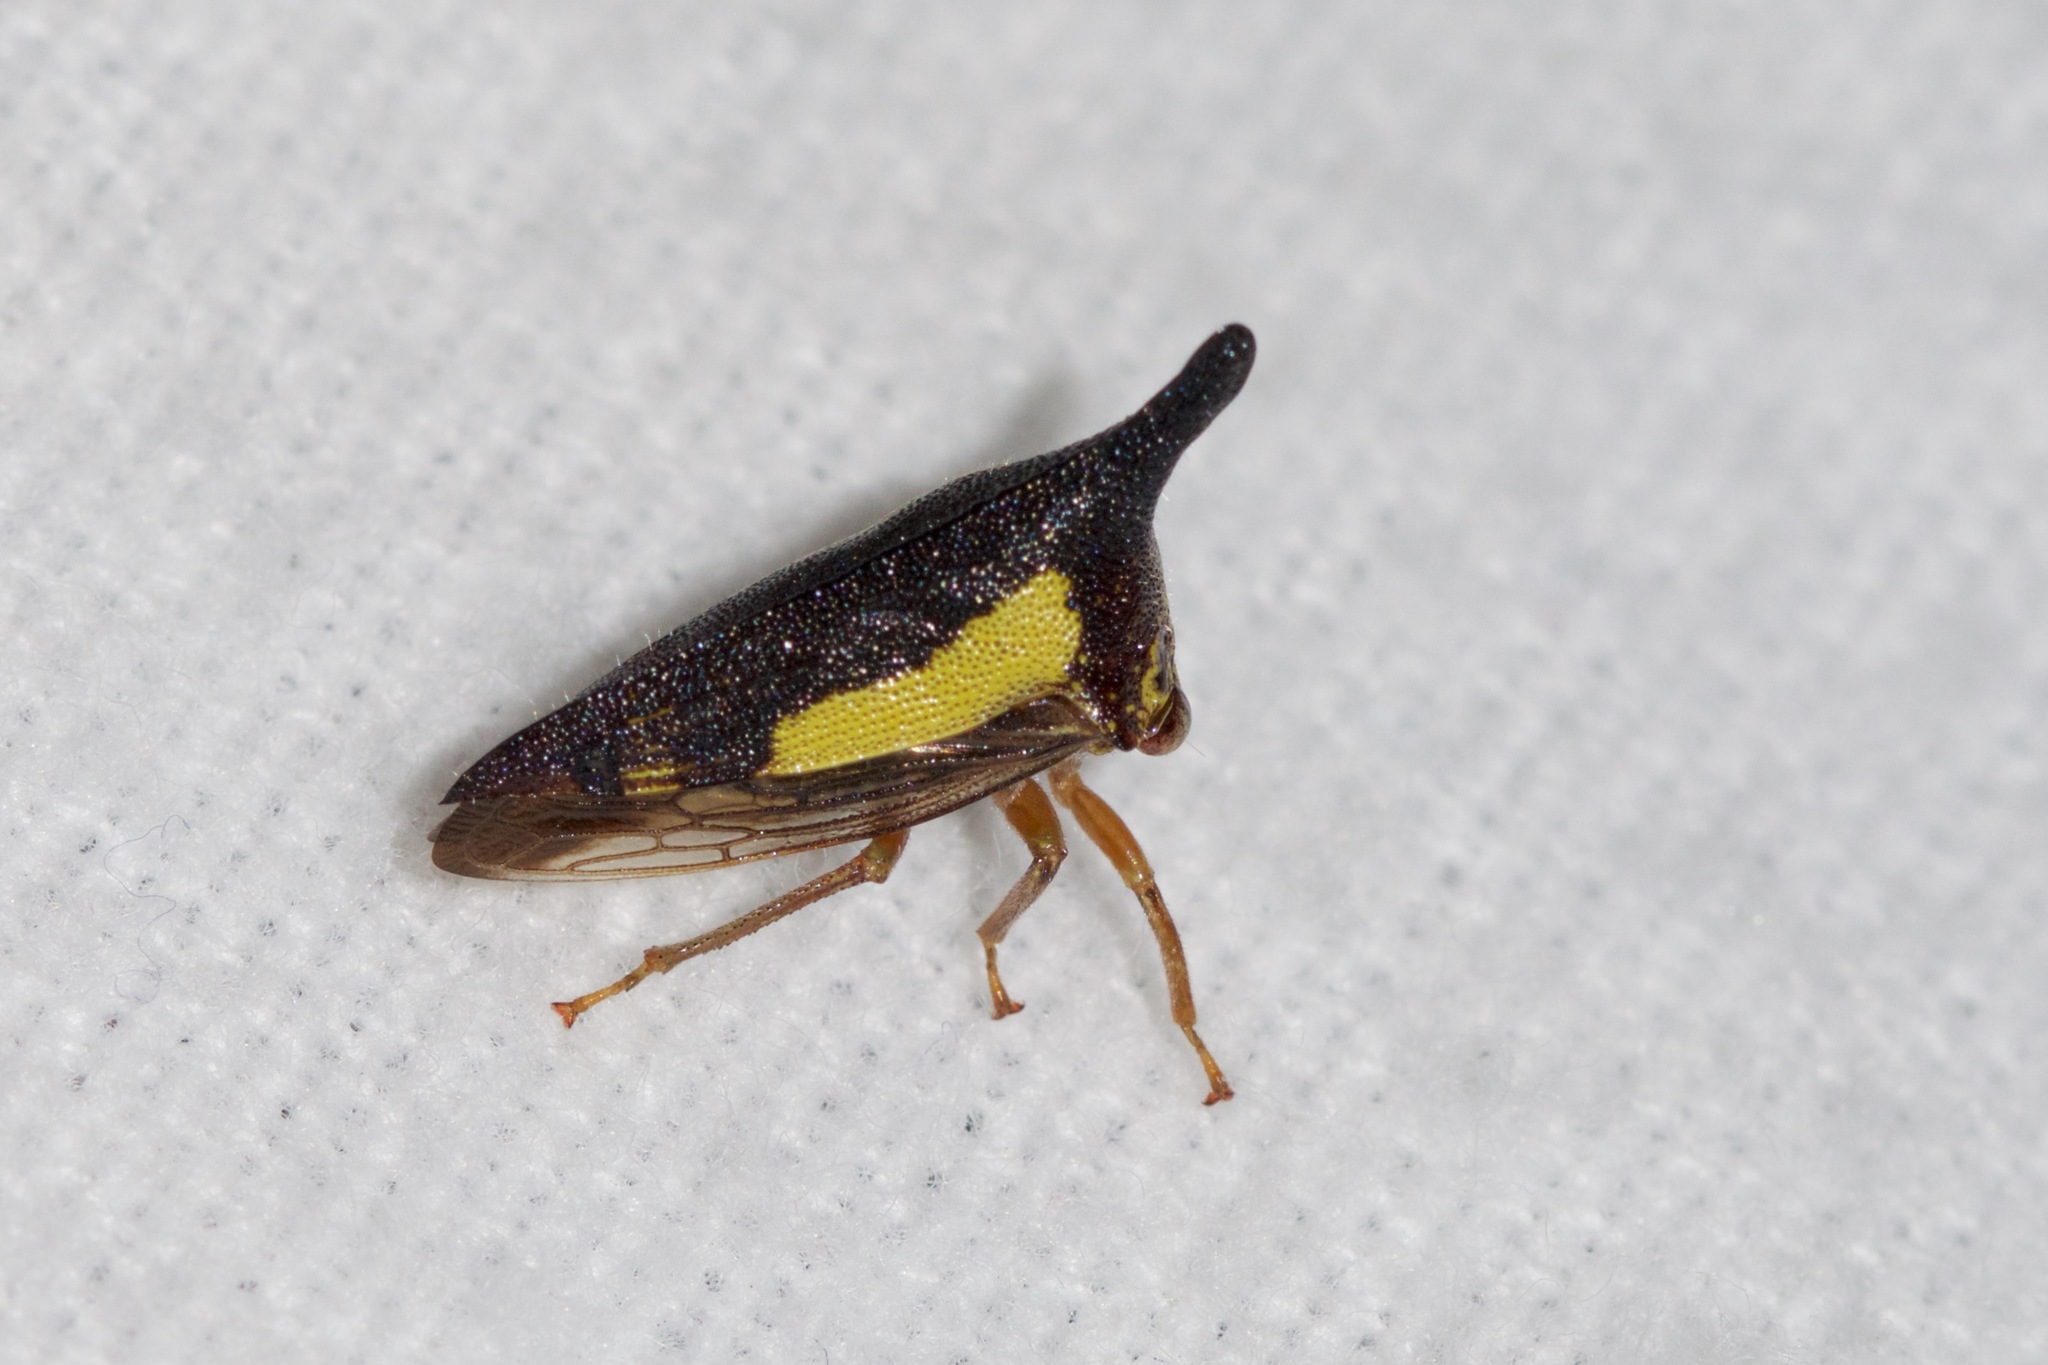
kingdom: Animalia
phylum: Arthropoda
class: Insecta
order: Hemiptera
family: Membracidae
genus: Thelia
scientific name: Thelia bimaculata
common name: Locust treehopper
